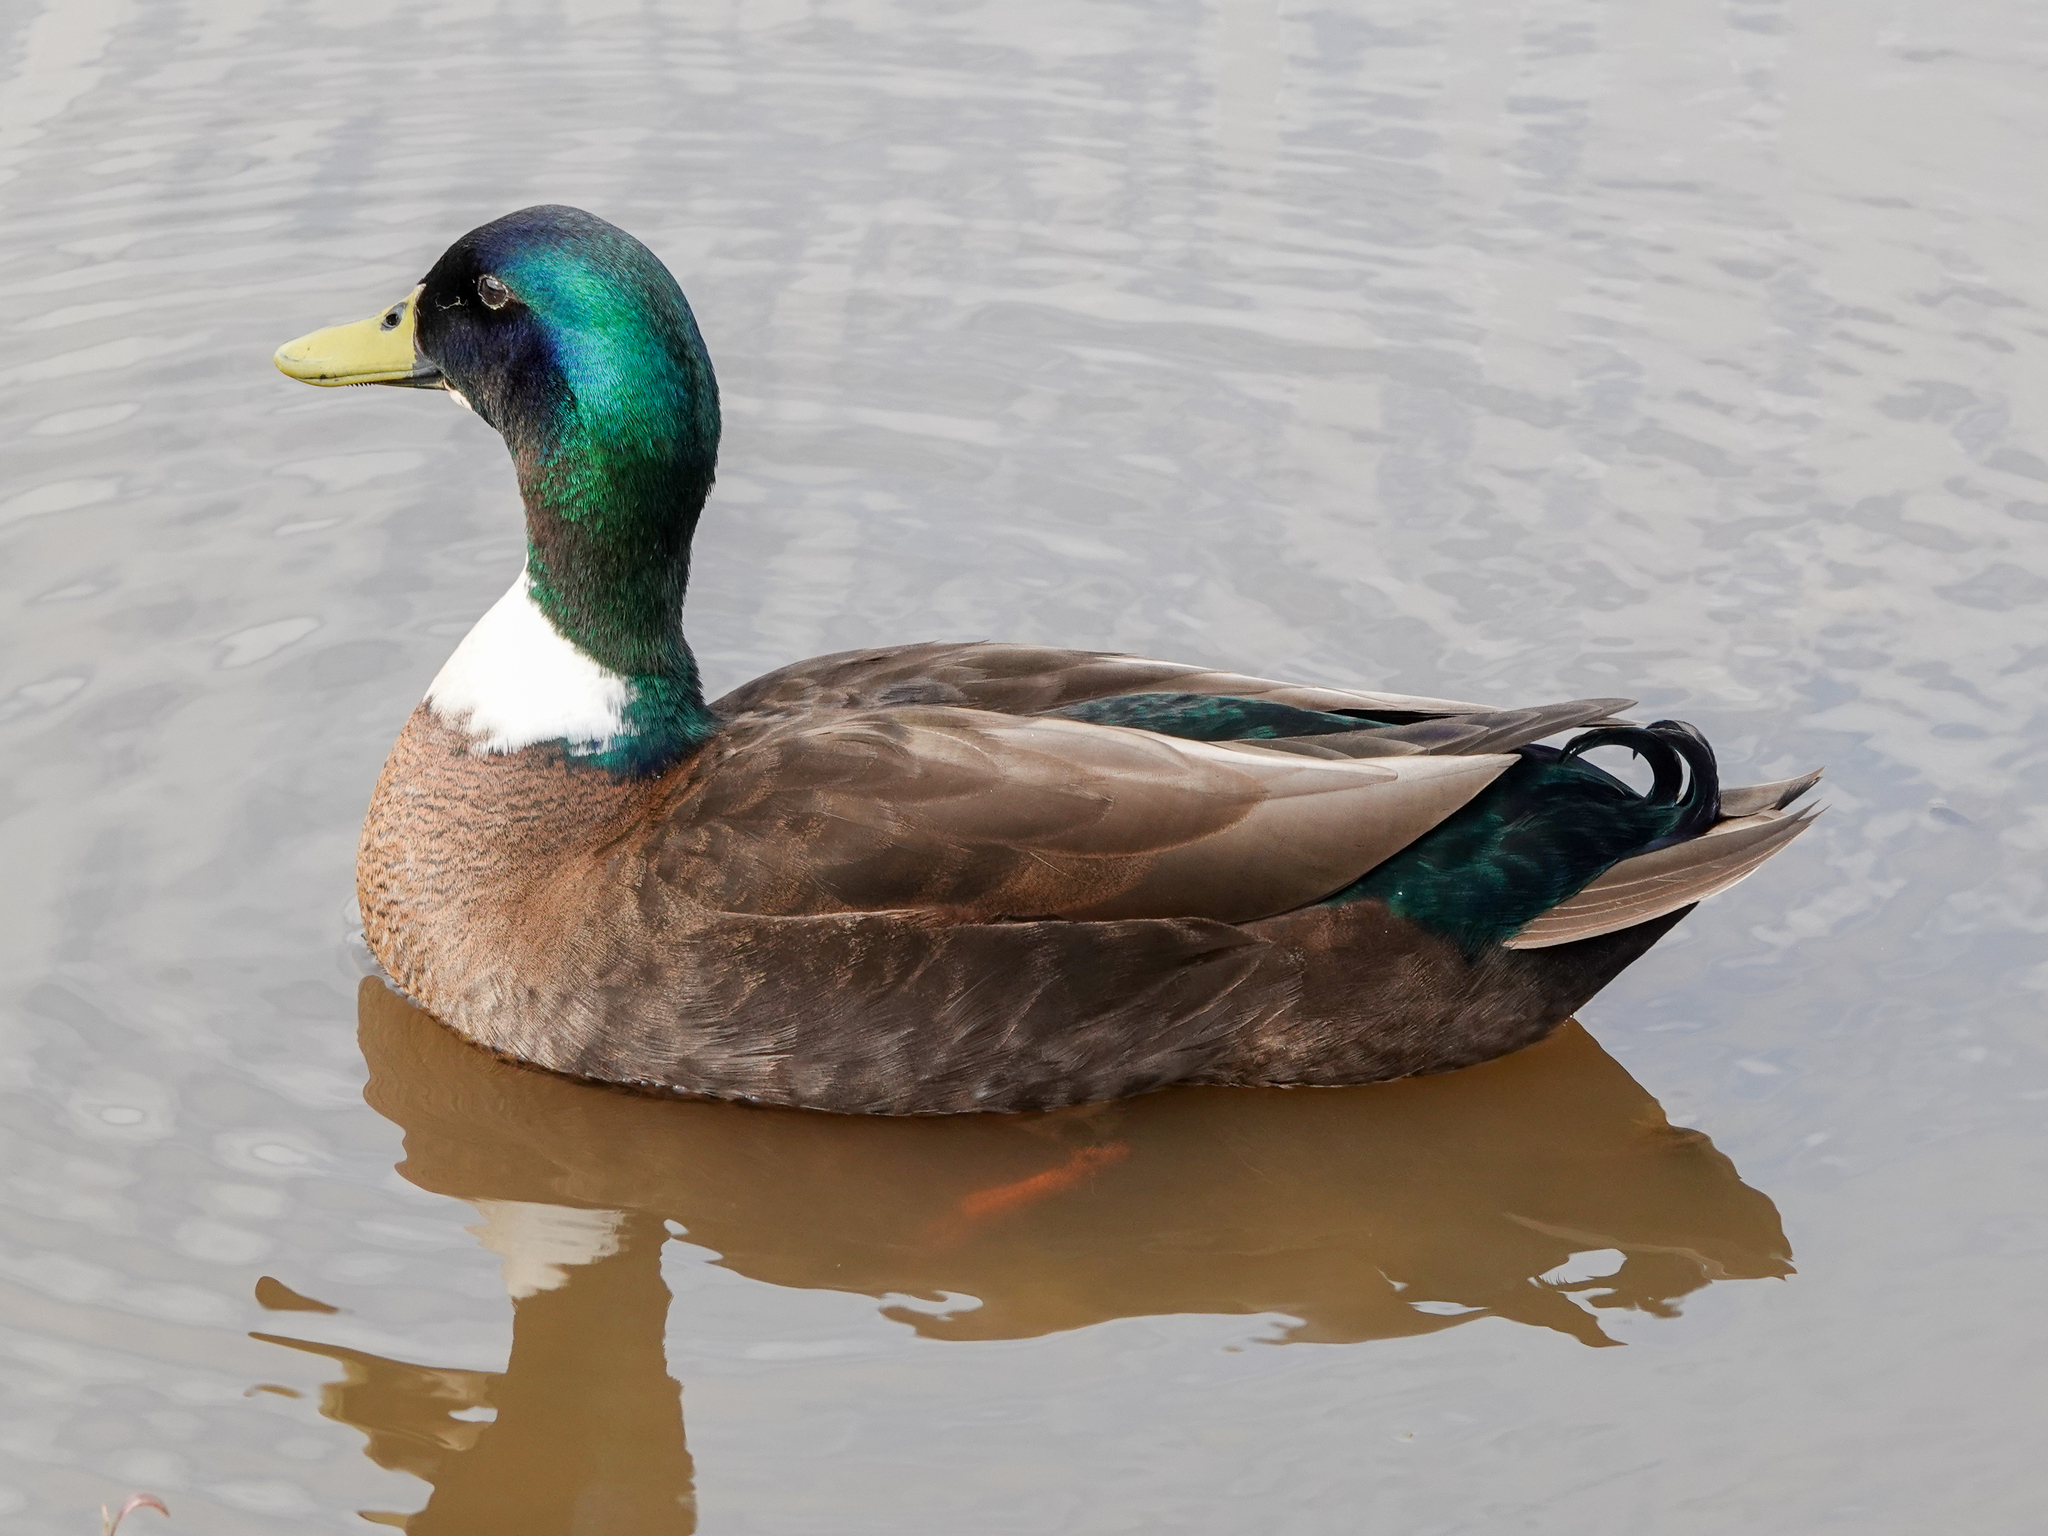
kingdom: Animalia
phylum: Chordata
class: Aves
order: Anseriformes
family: Anatidae
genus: Anas
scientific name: Anas platyrhynchos
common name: Mallard
